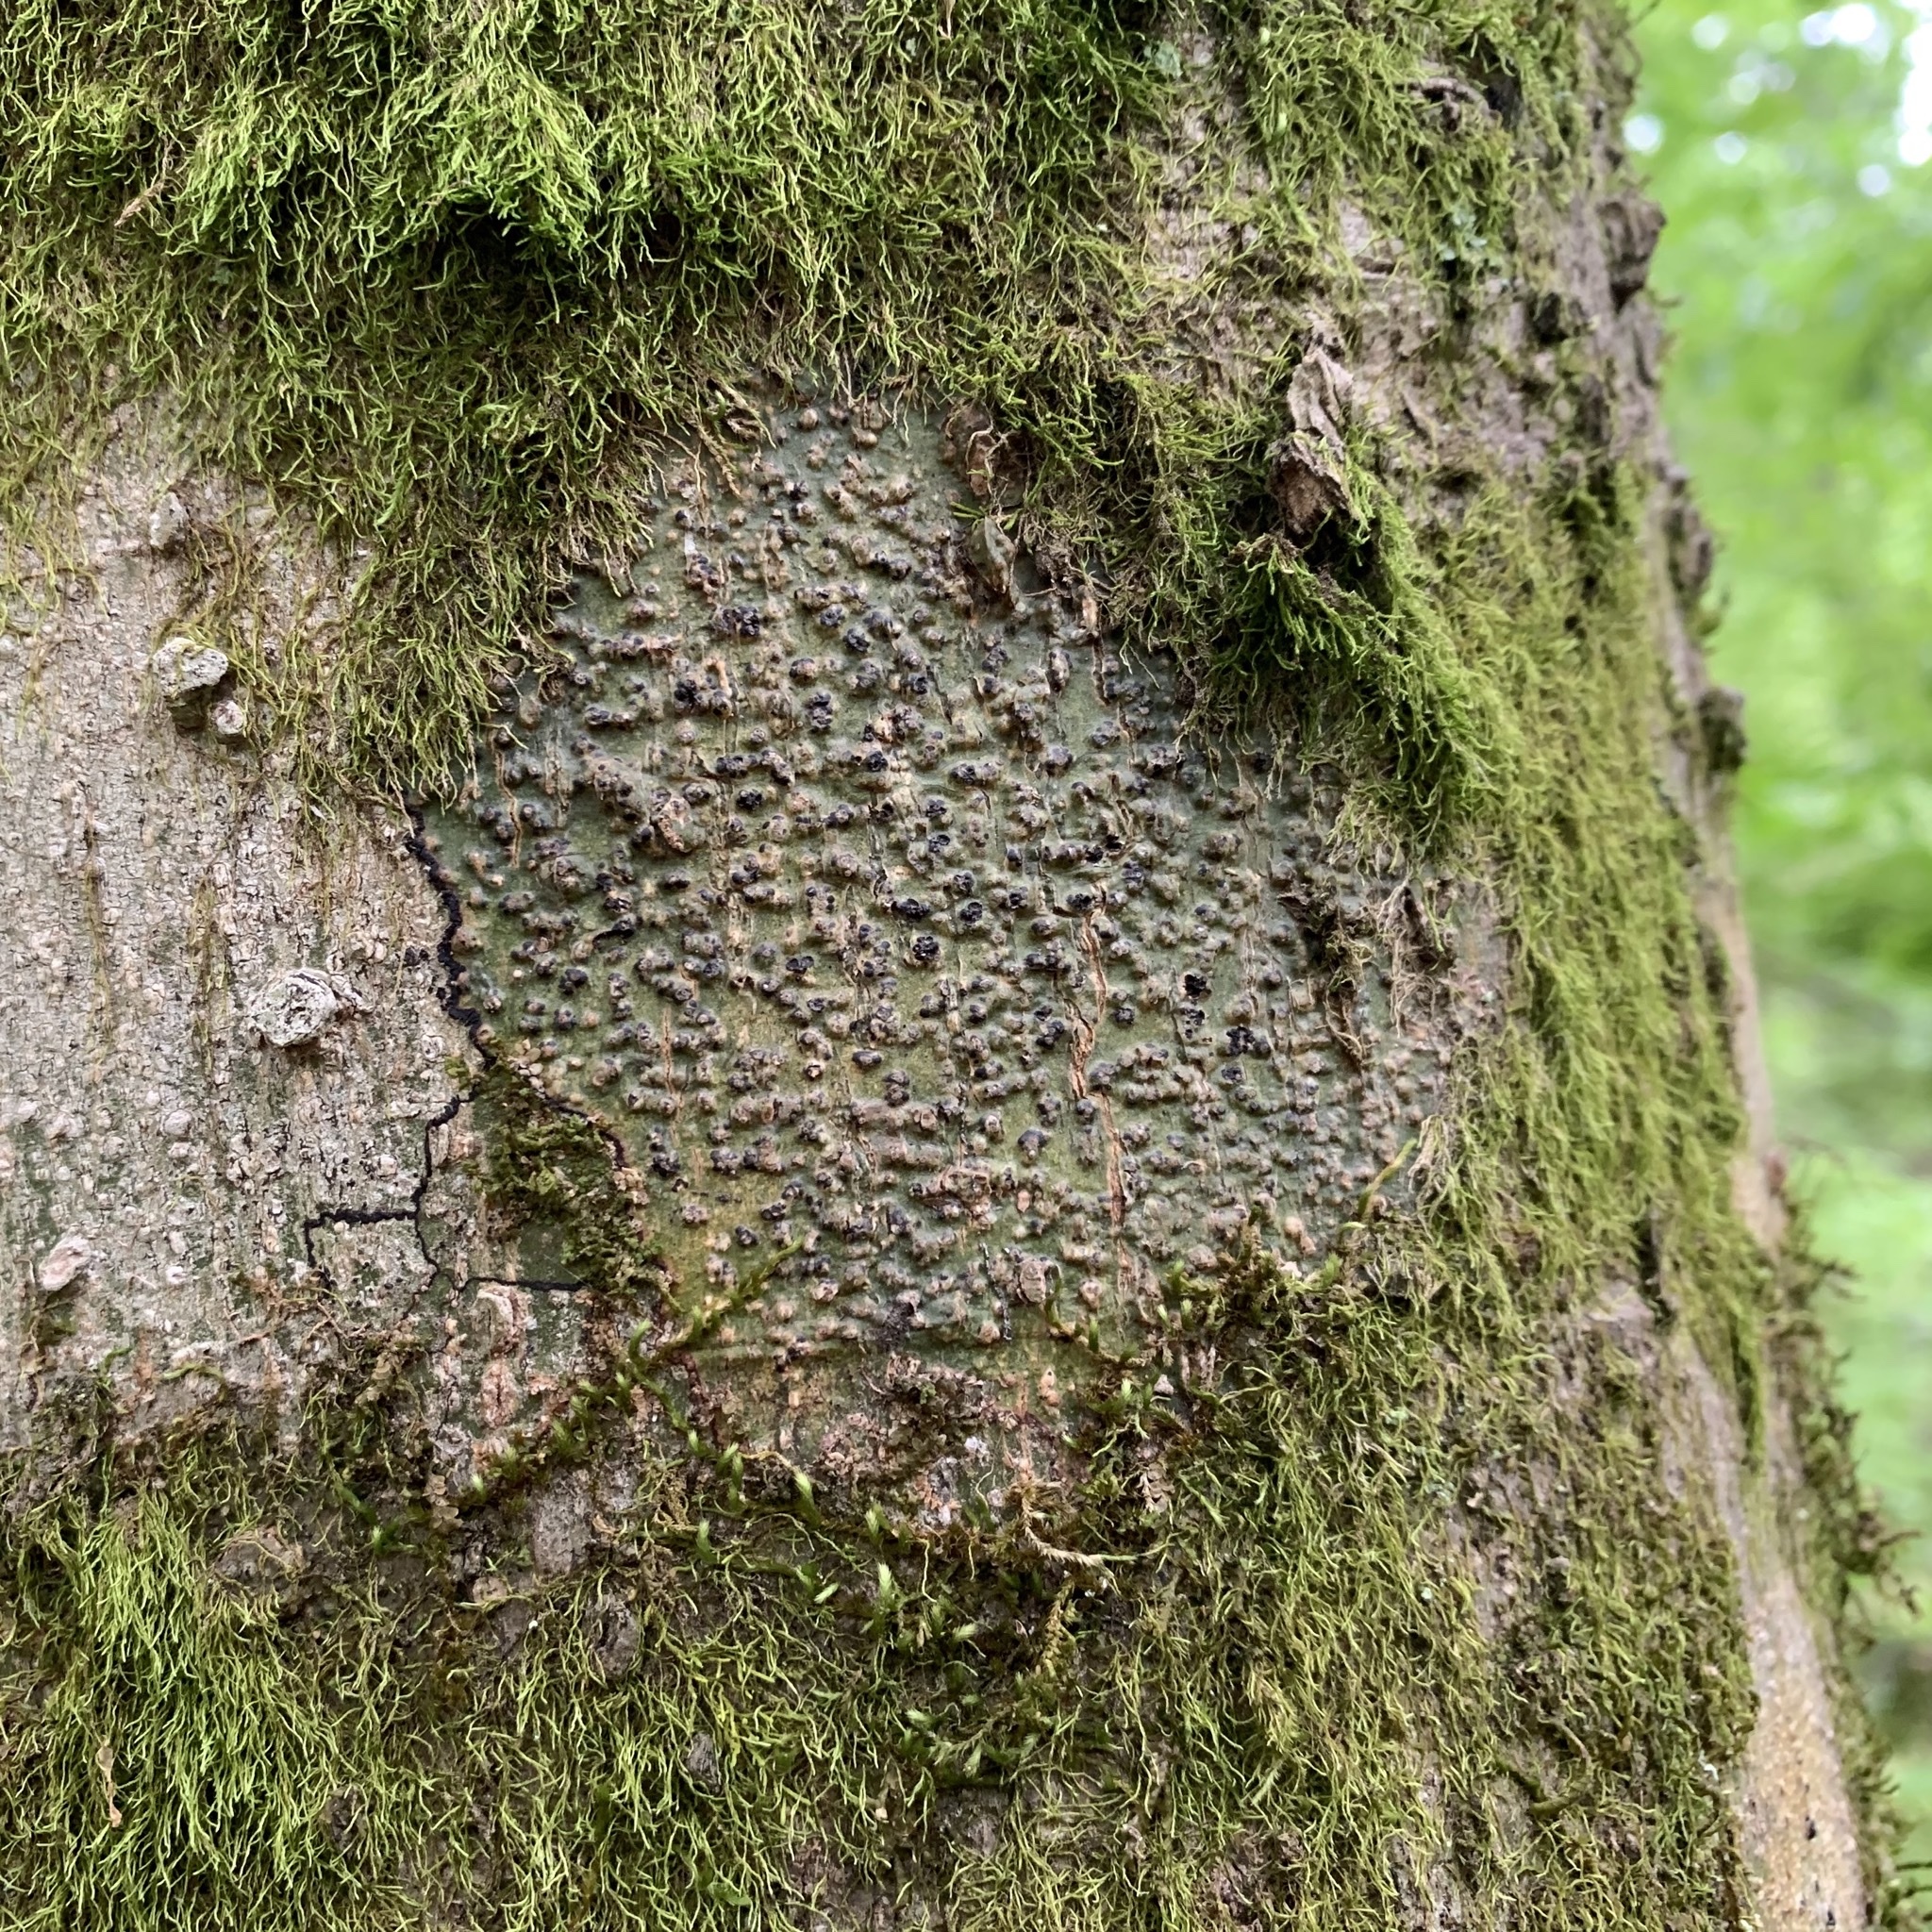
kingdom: Fungi
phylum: Ascomycota
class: Eurotiomycetes
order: Pyrenulales
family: Pyrenulaceae
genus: Pyrenula
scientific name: Pyrenula ravenelii
